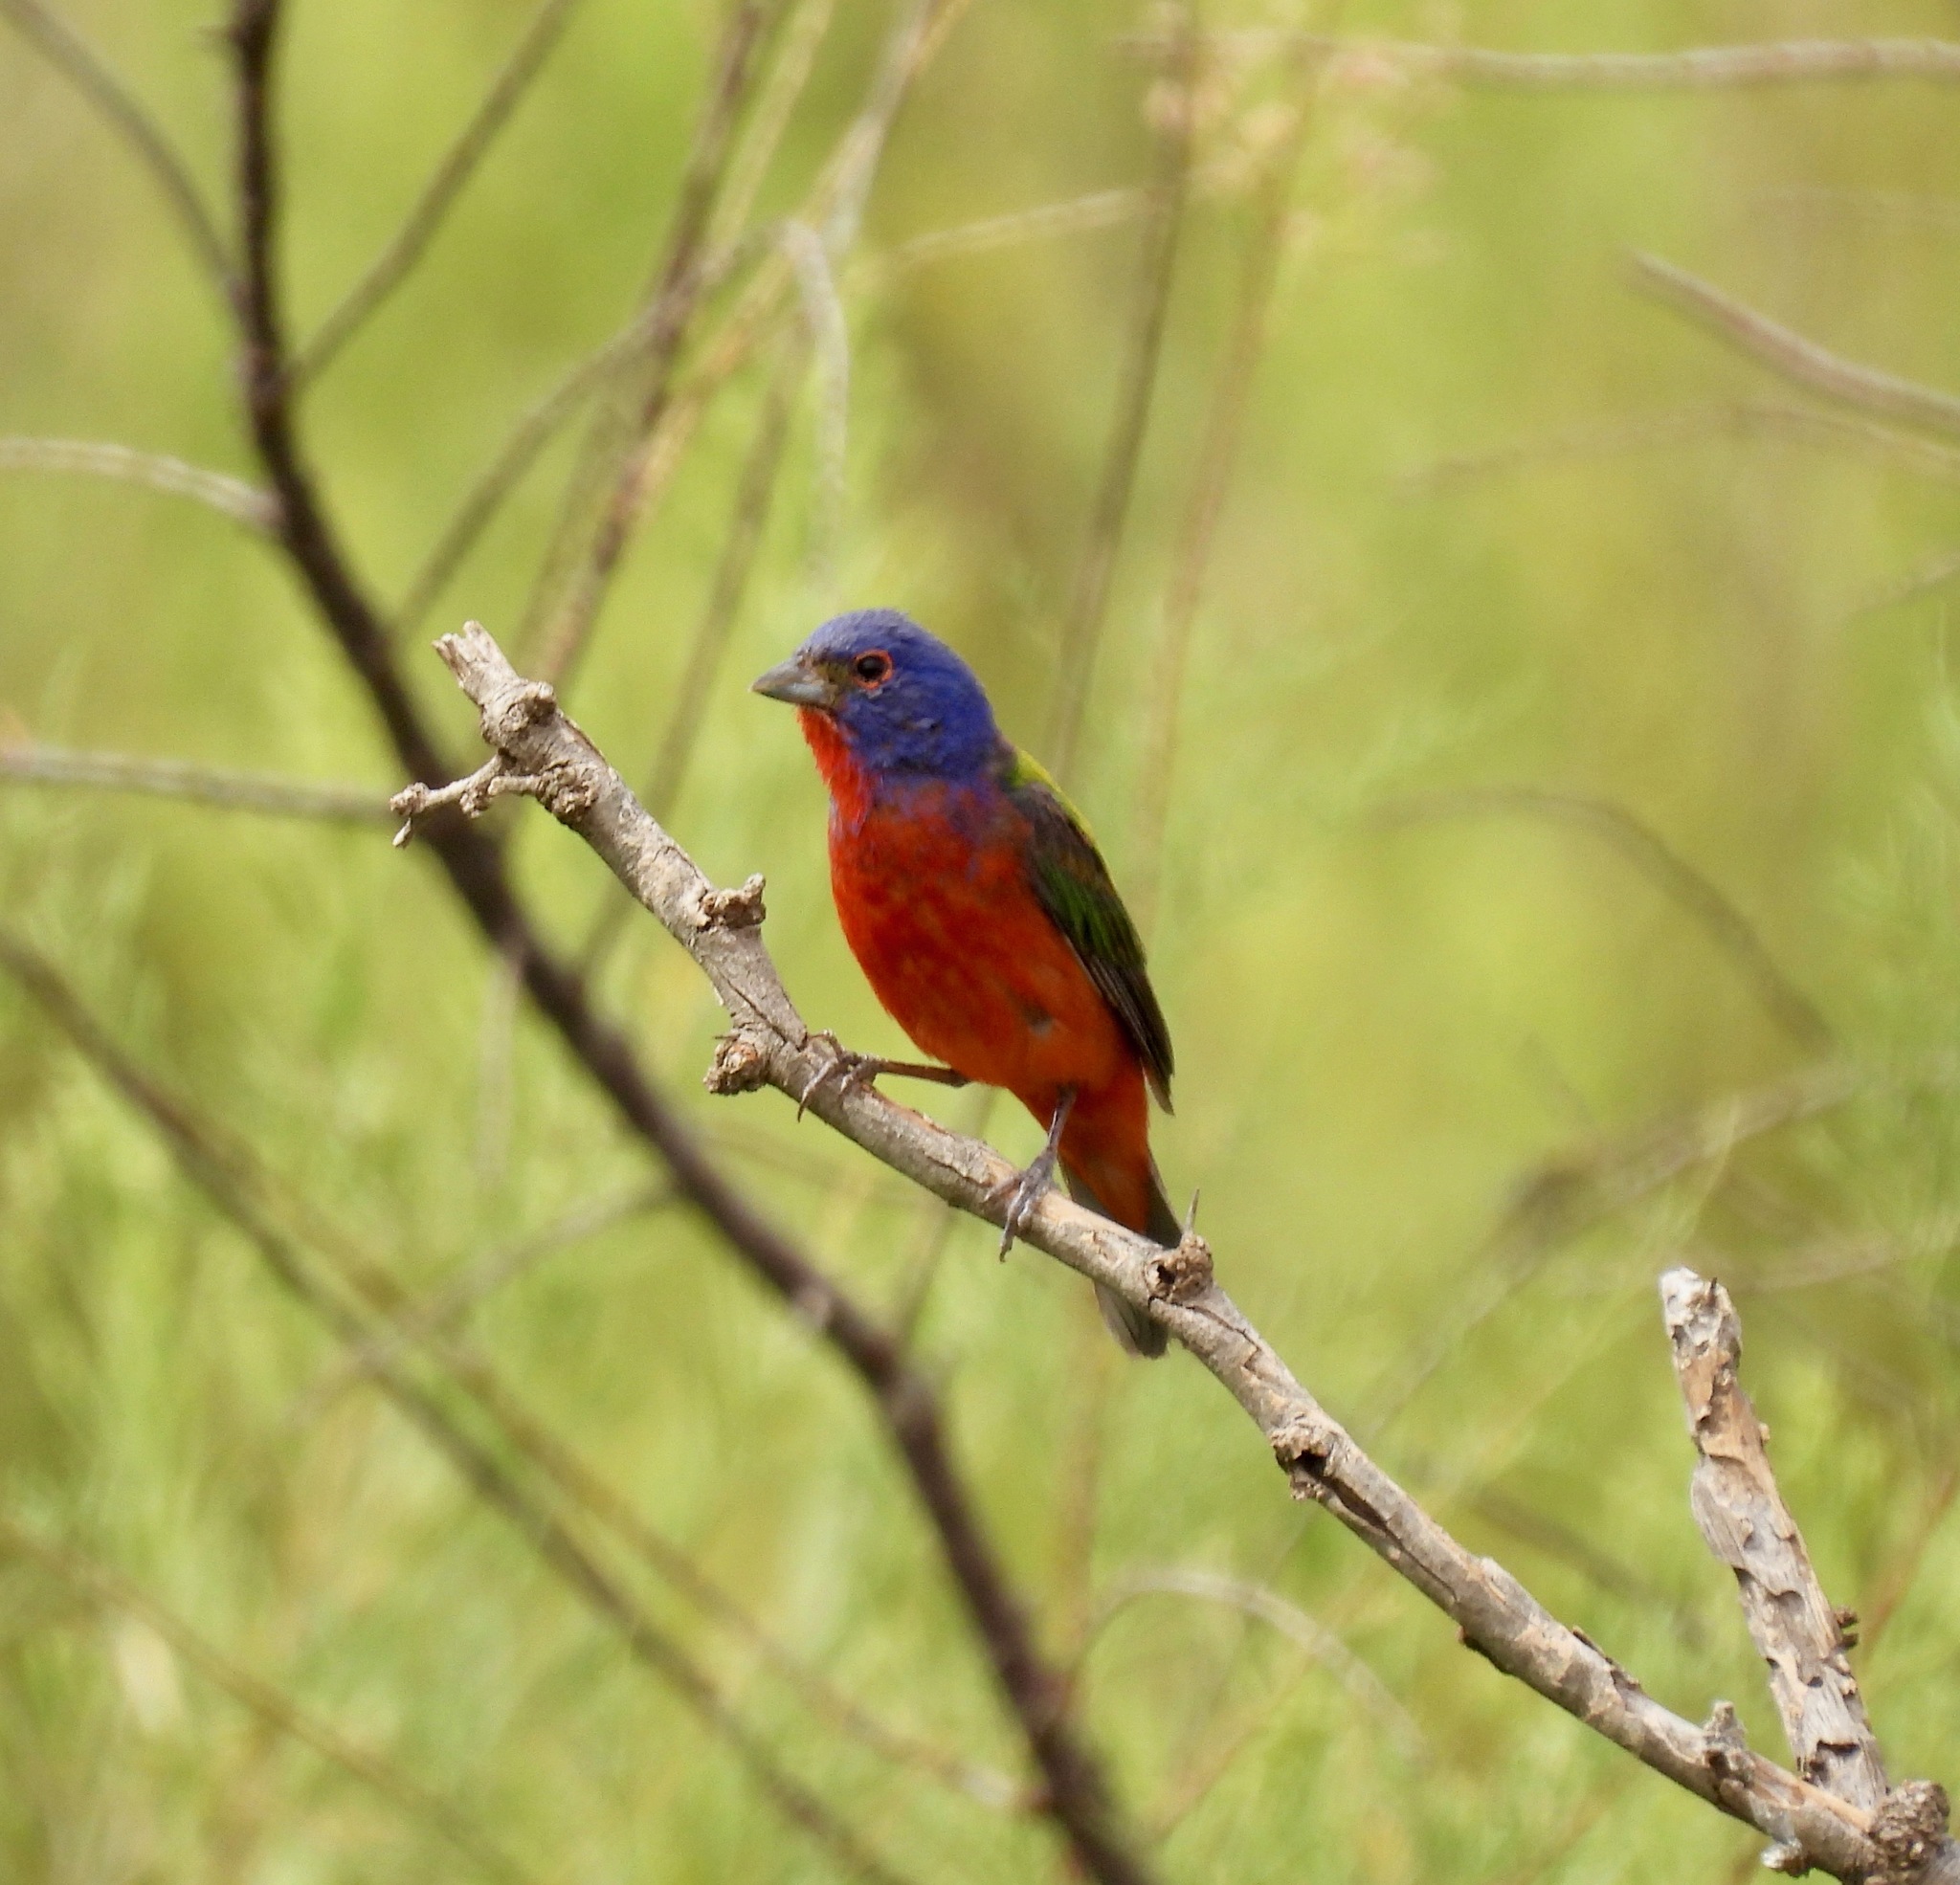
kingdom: Animalia
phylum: Chordata
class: Aves
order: Passeriformes
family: Cardinalidae
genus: Passerina
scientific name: Passerina ciris
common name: Painted bunting
